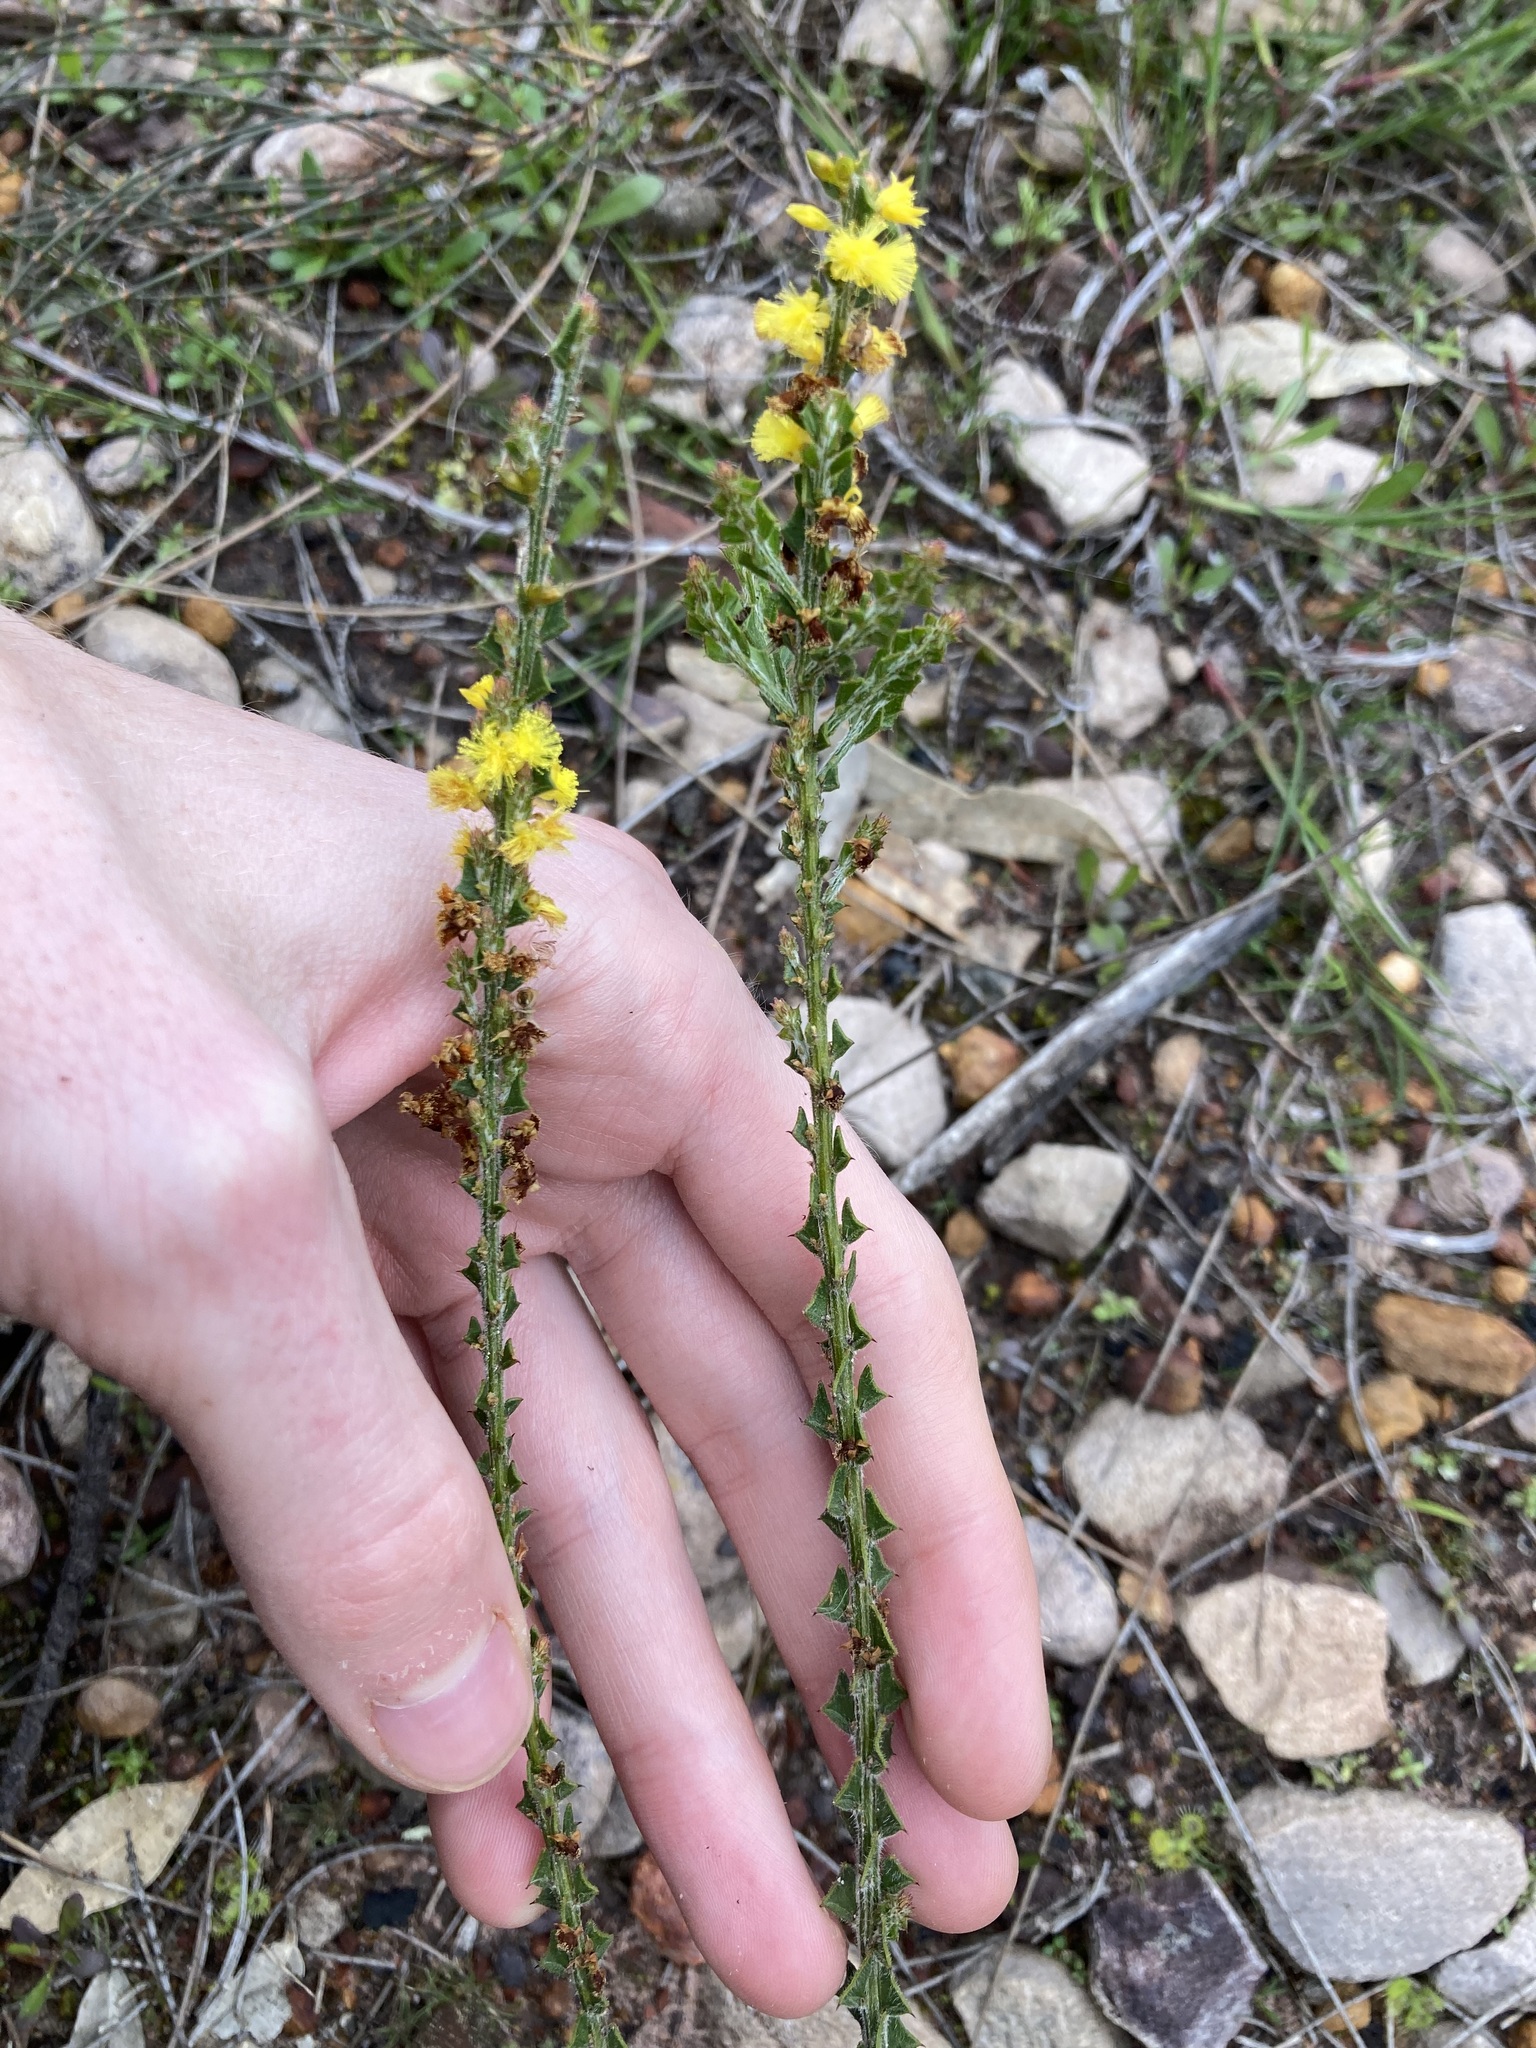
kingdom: Plantae
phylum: Tracheophyta
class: Magnoliopsida
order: Fabales
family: Fabaceae
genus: Acacia
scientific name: Acacia chrysocephala
